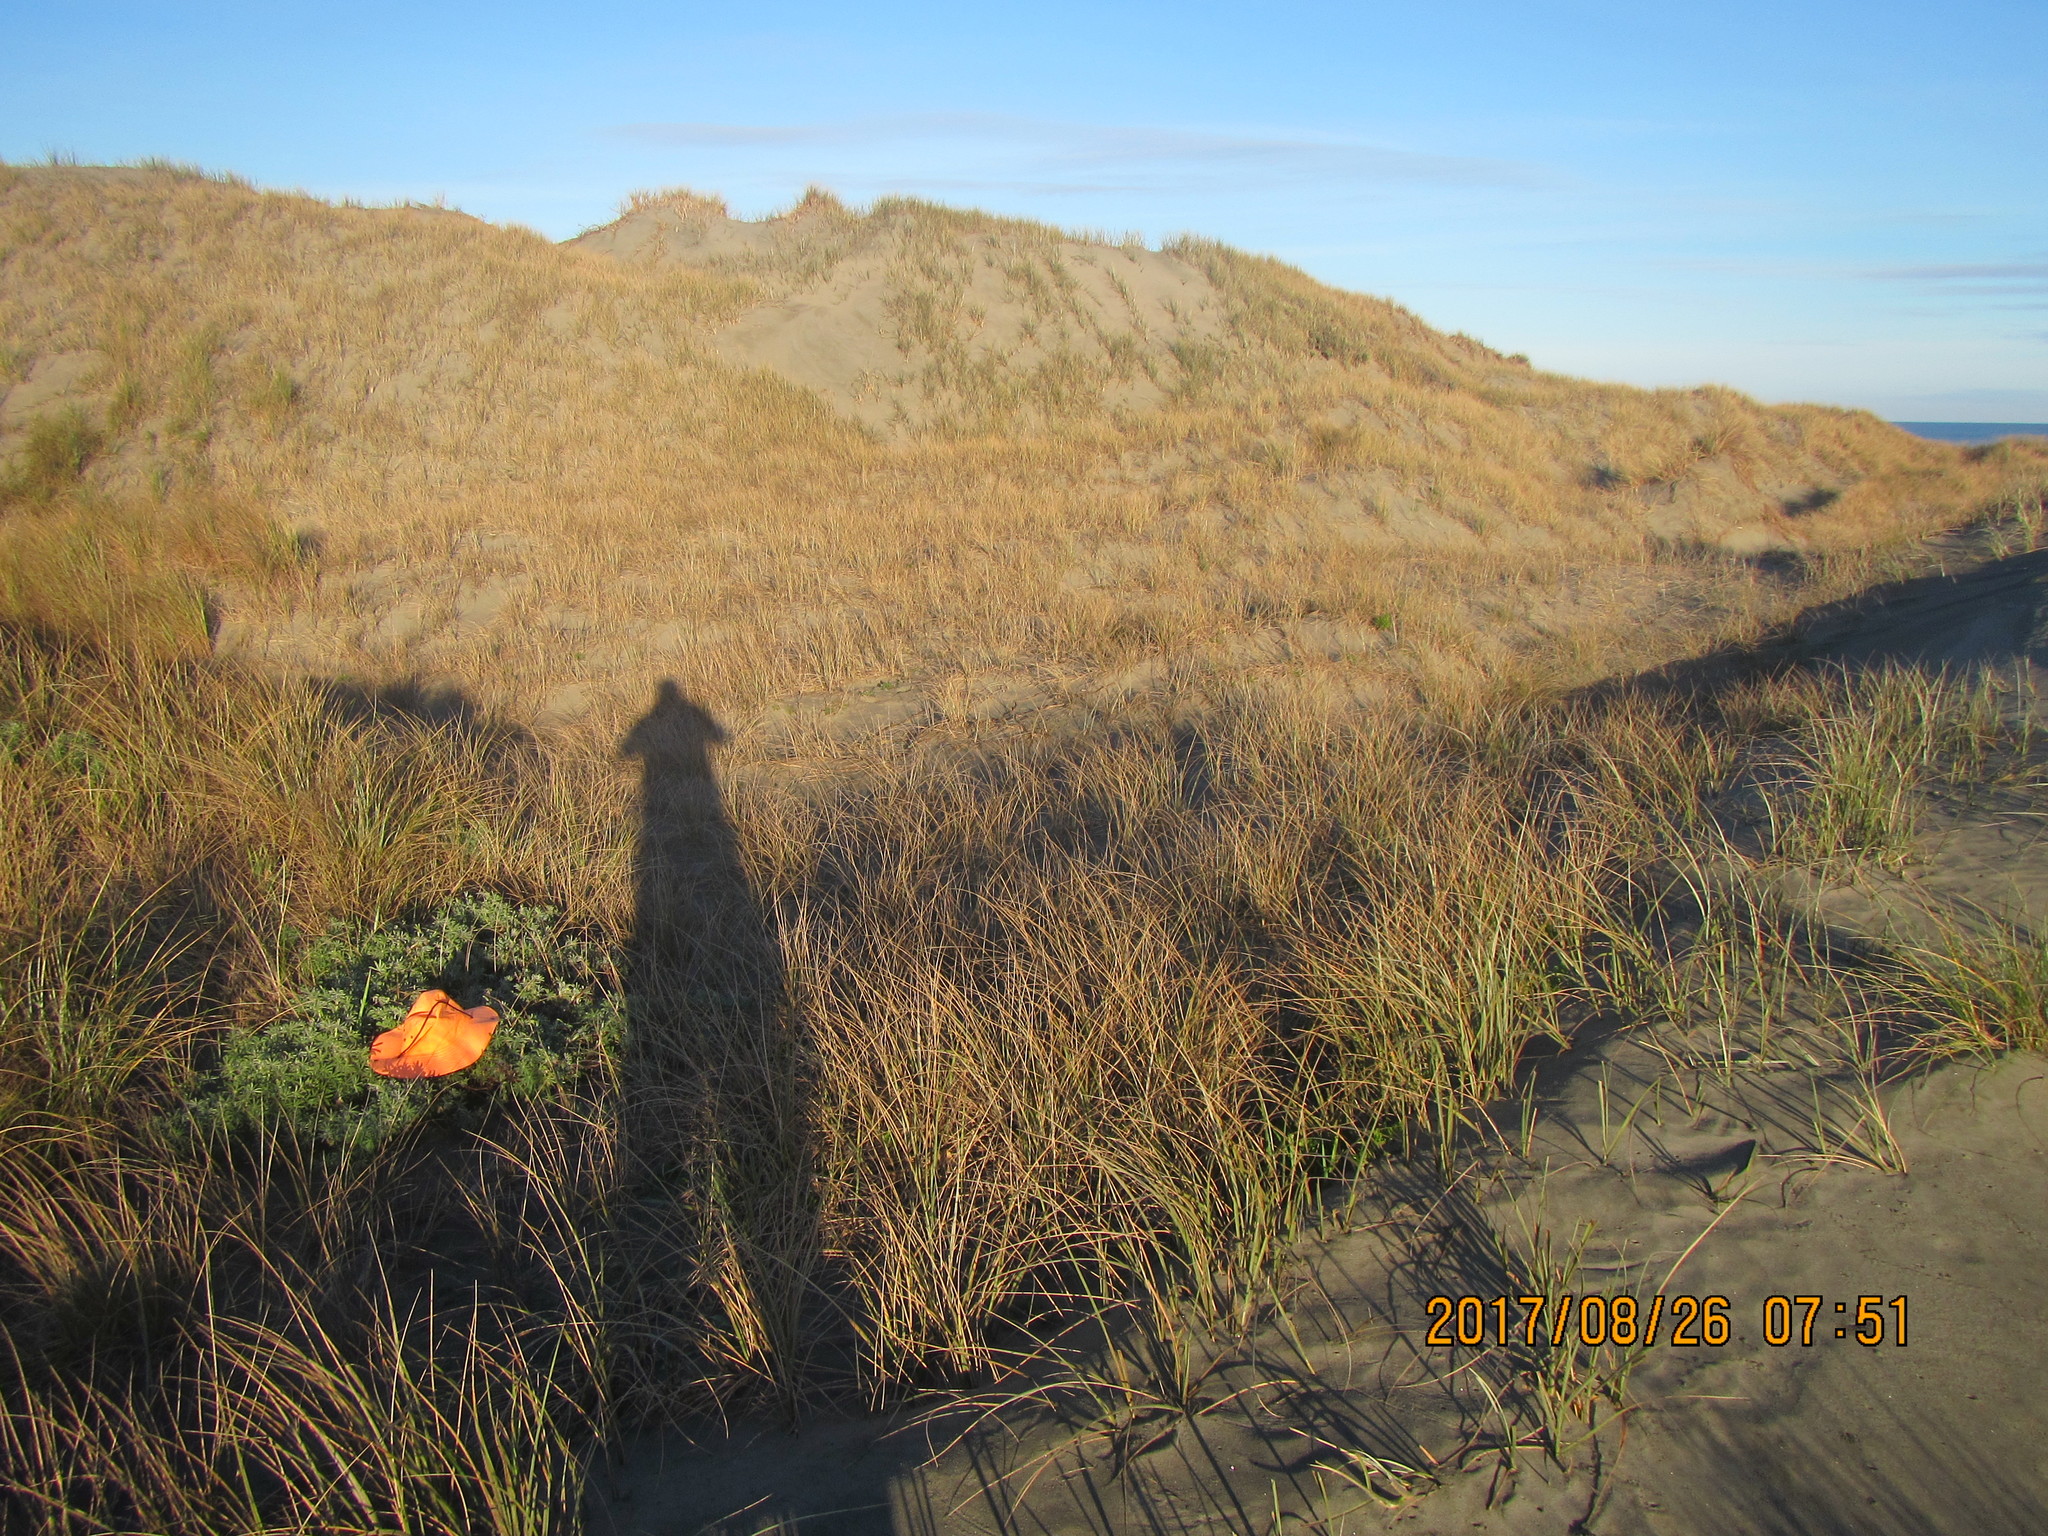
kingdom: Plantae
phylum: Tracheophyta
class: Magnoliopsida
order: Fabales
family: Fabaceae
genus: Lupinus
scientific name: Lupinus arboreus
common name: Yellow bush lupine
